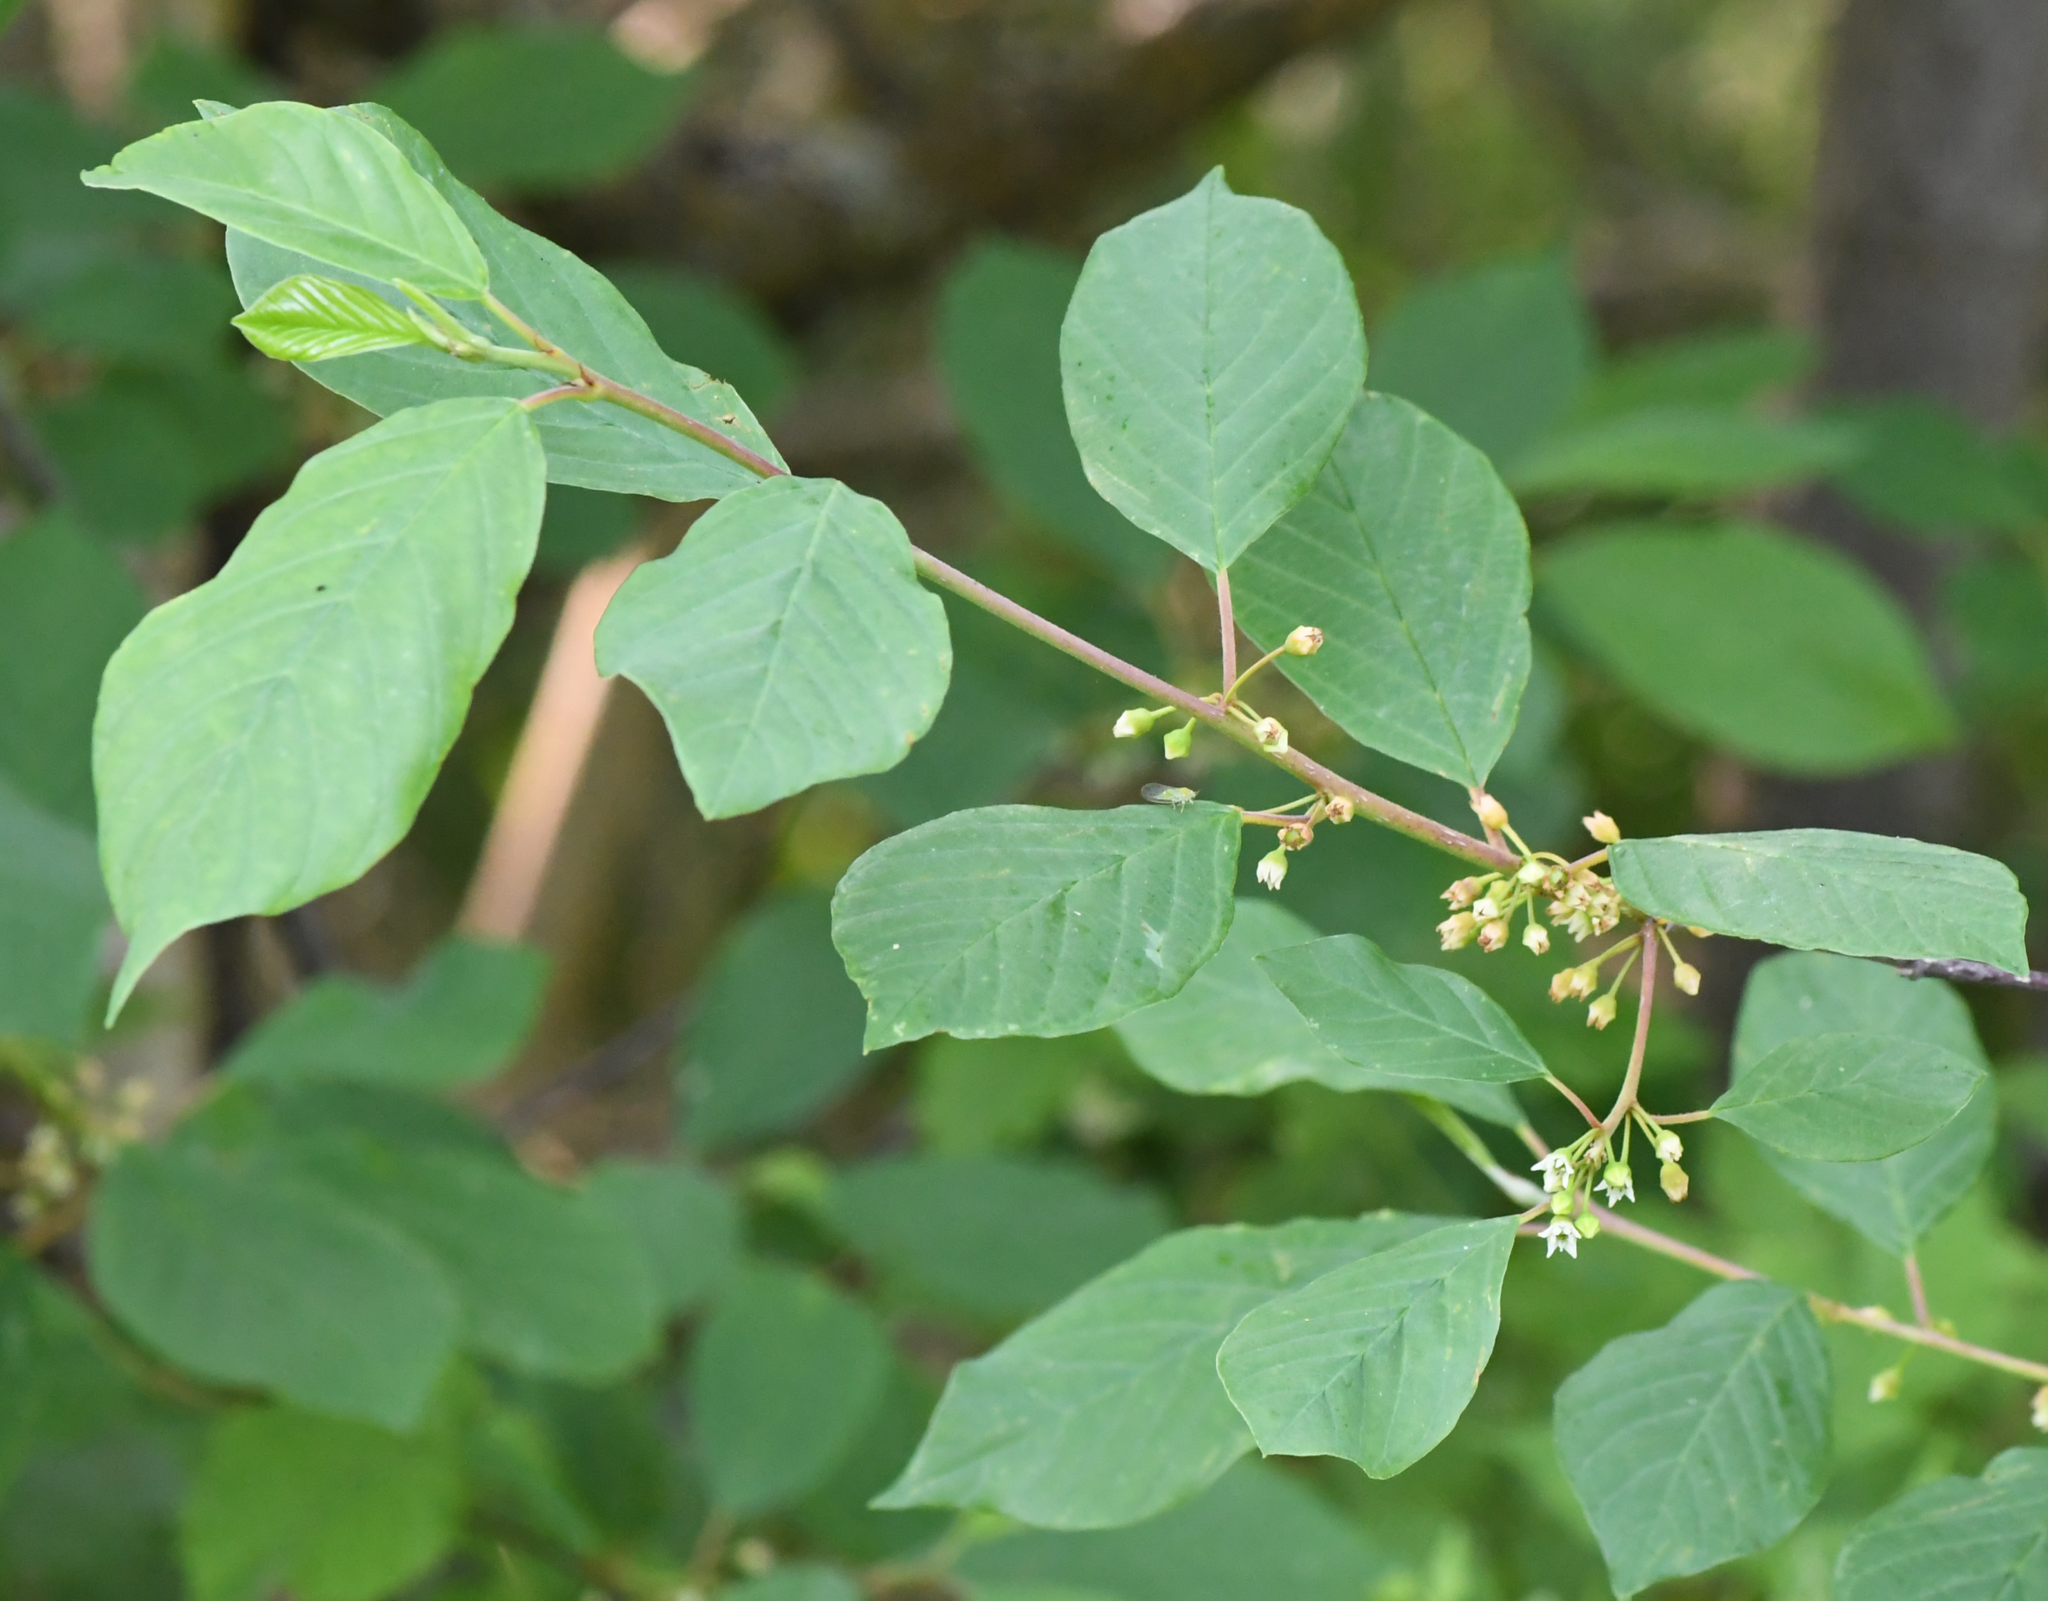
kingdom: Plantae
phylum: Tracheophyta
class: Magnoliopsida
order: Rosales
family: Rhamnaceae
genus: Frangula
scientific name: Frangula alnus
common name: Alder buckthorn
